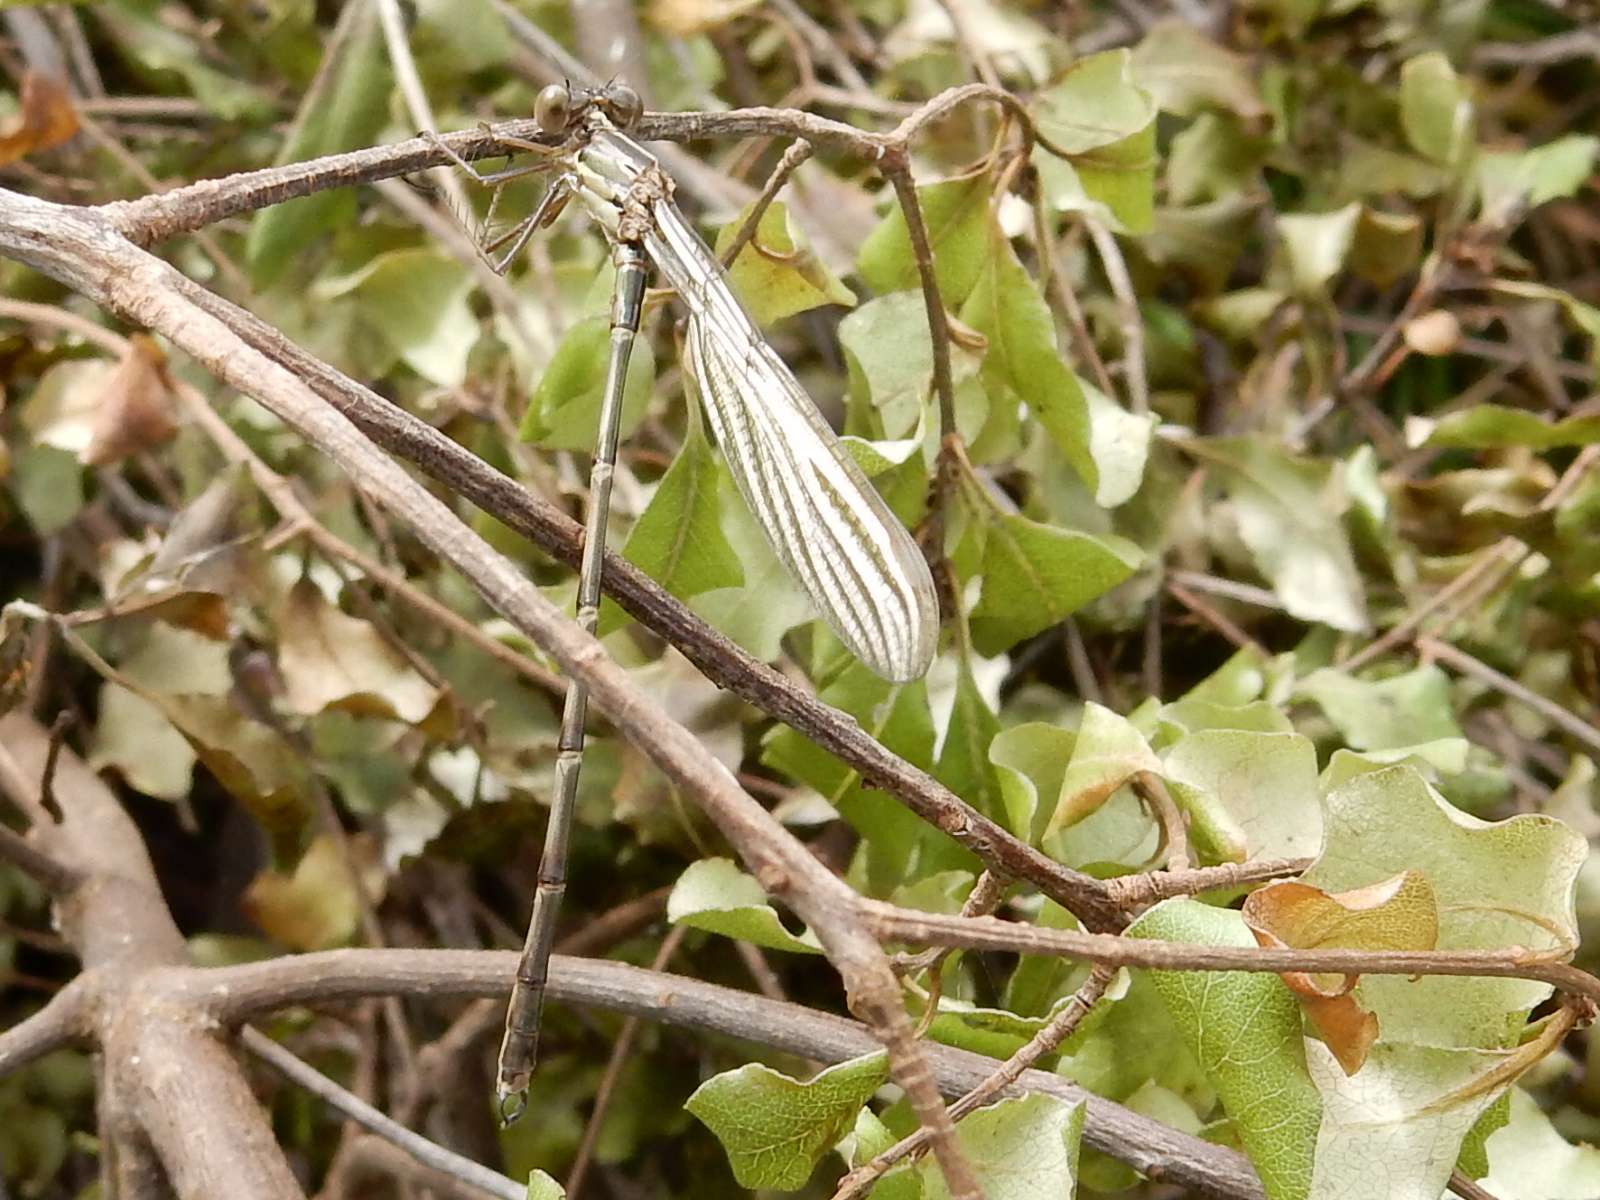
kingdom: Animalia
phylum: Arthropoda
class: Insecta
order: Odonata
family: Lestidae
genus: Austrolestes
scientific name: Austrolestes colensonis
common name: Blue damselfly
